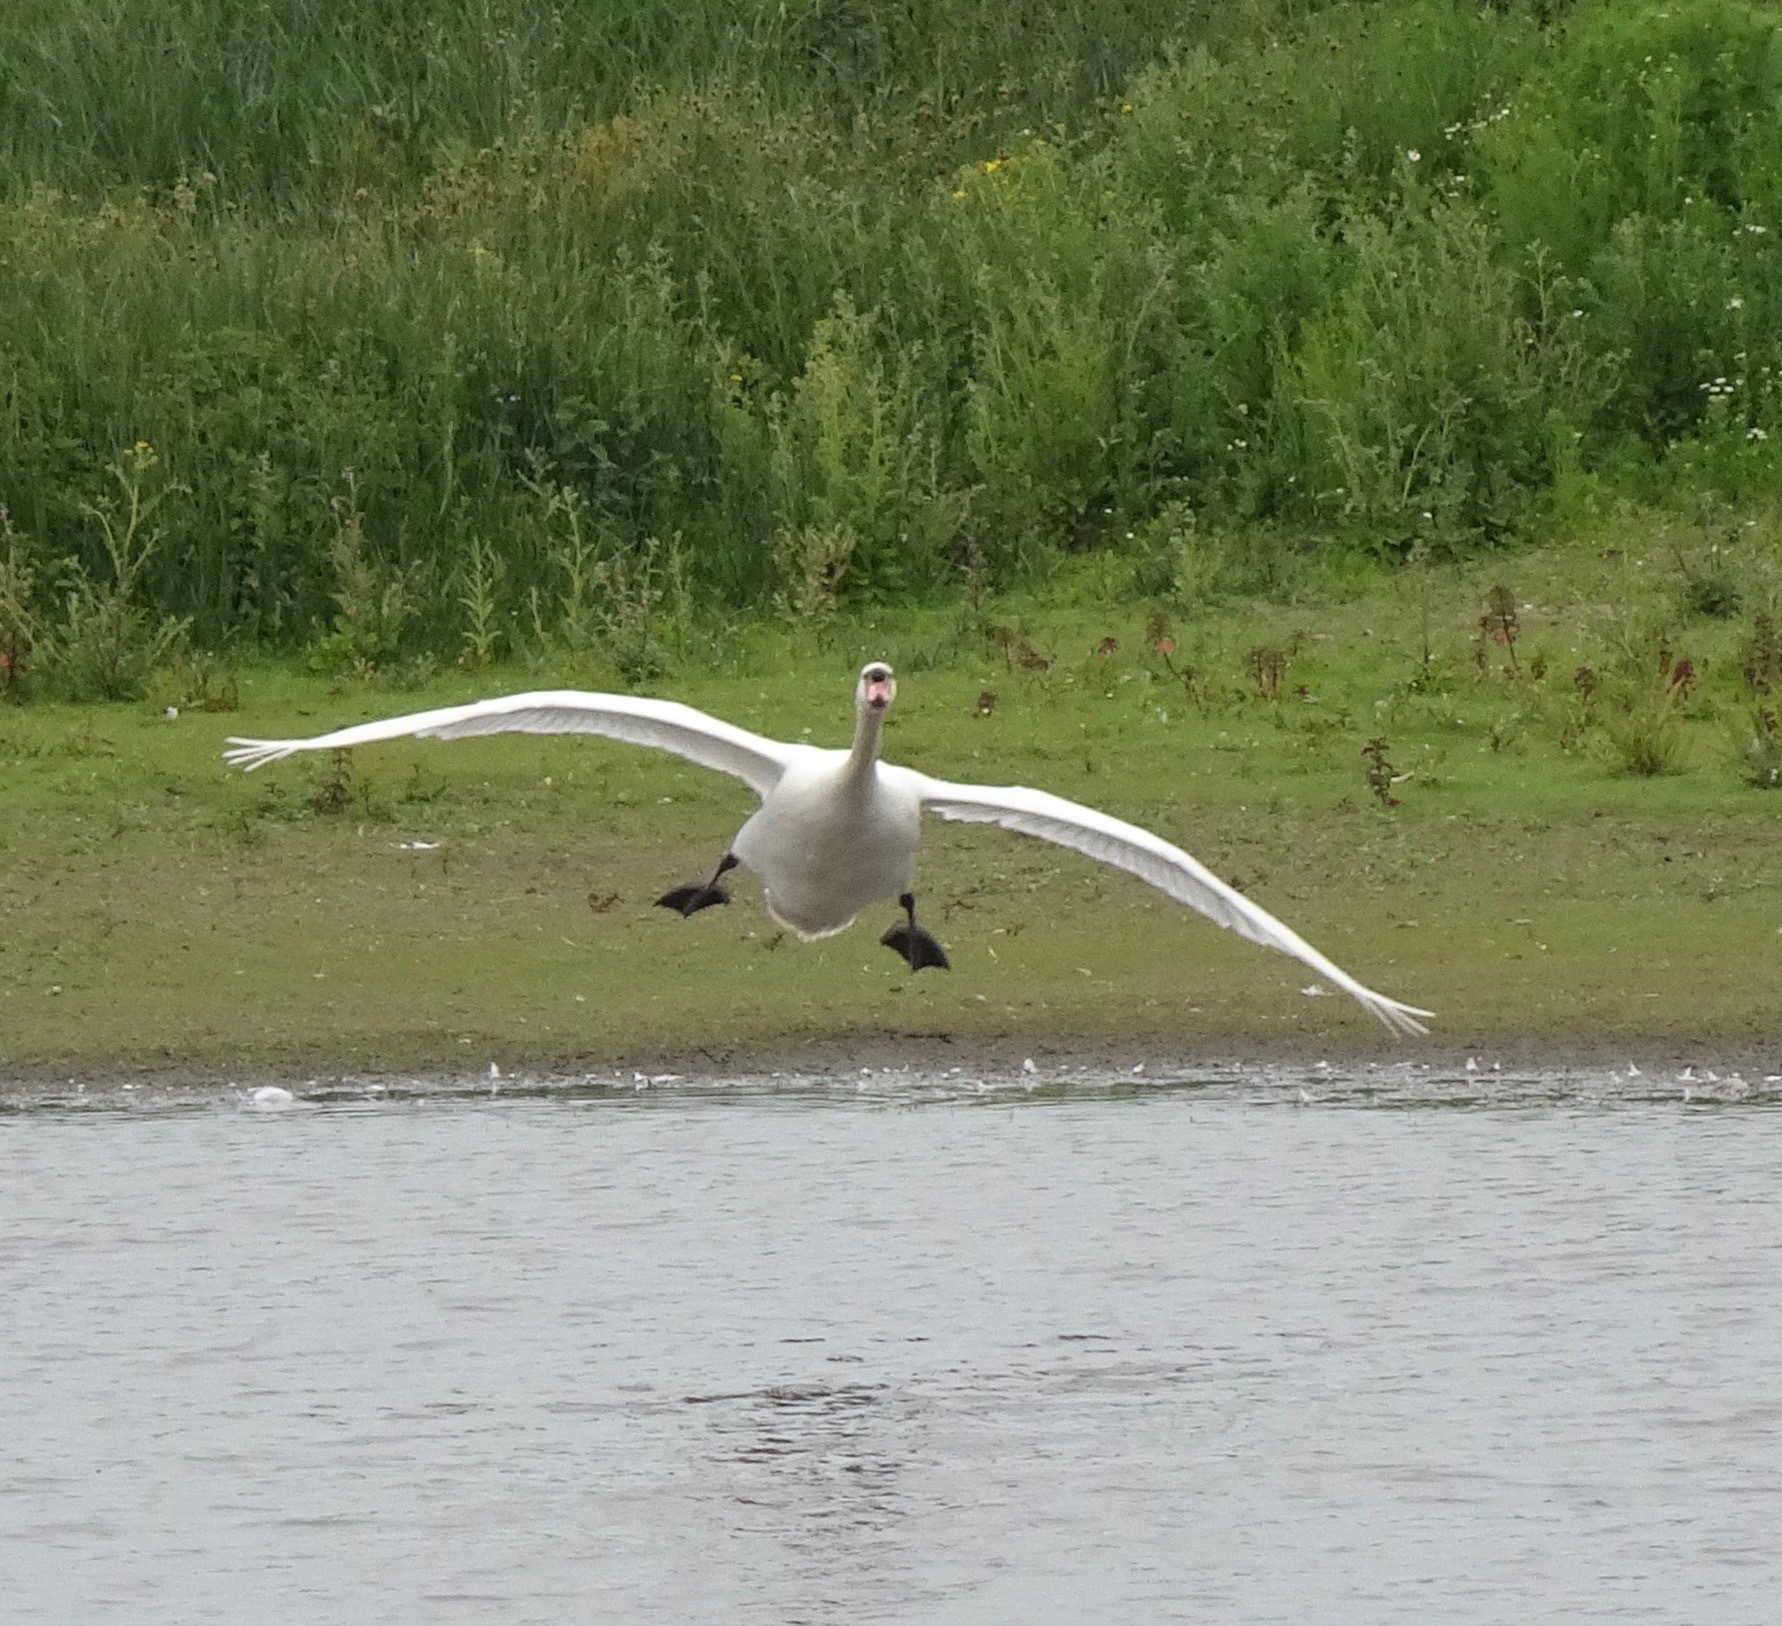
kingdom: Animalia
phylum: Chordata
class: Aves
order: Anseriformes
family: Anatidae
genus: Cygnus
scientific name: Cygnus olor
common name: Mute swan
